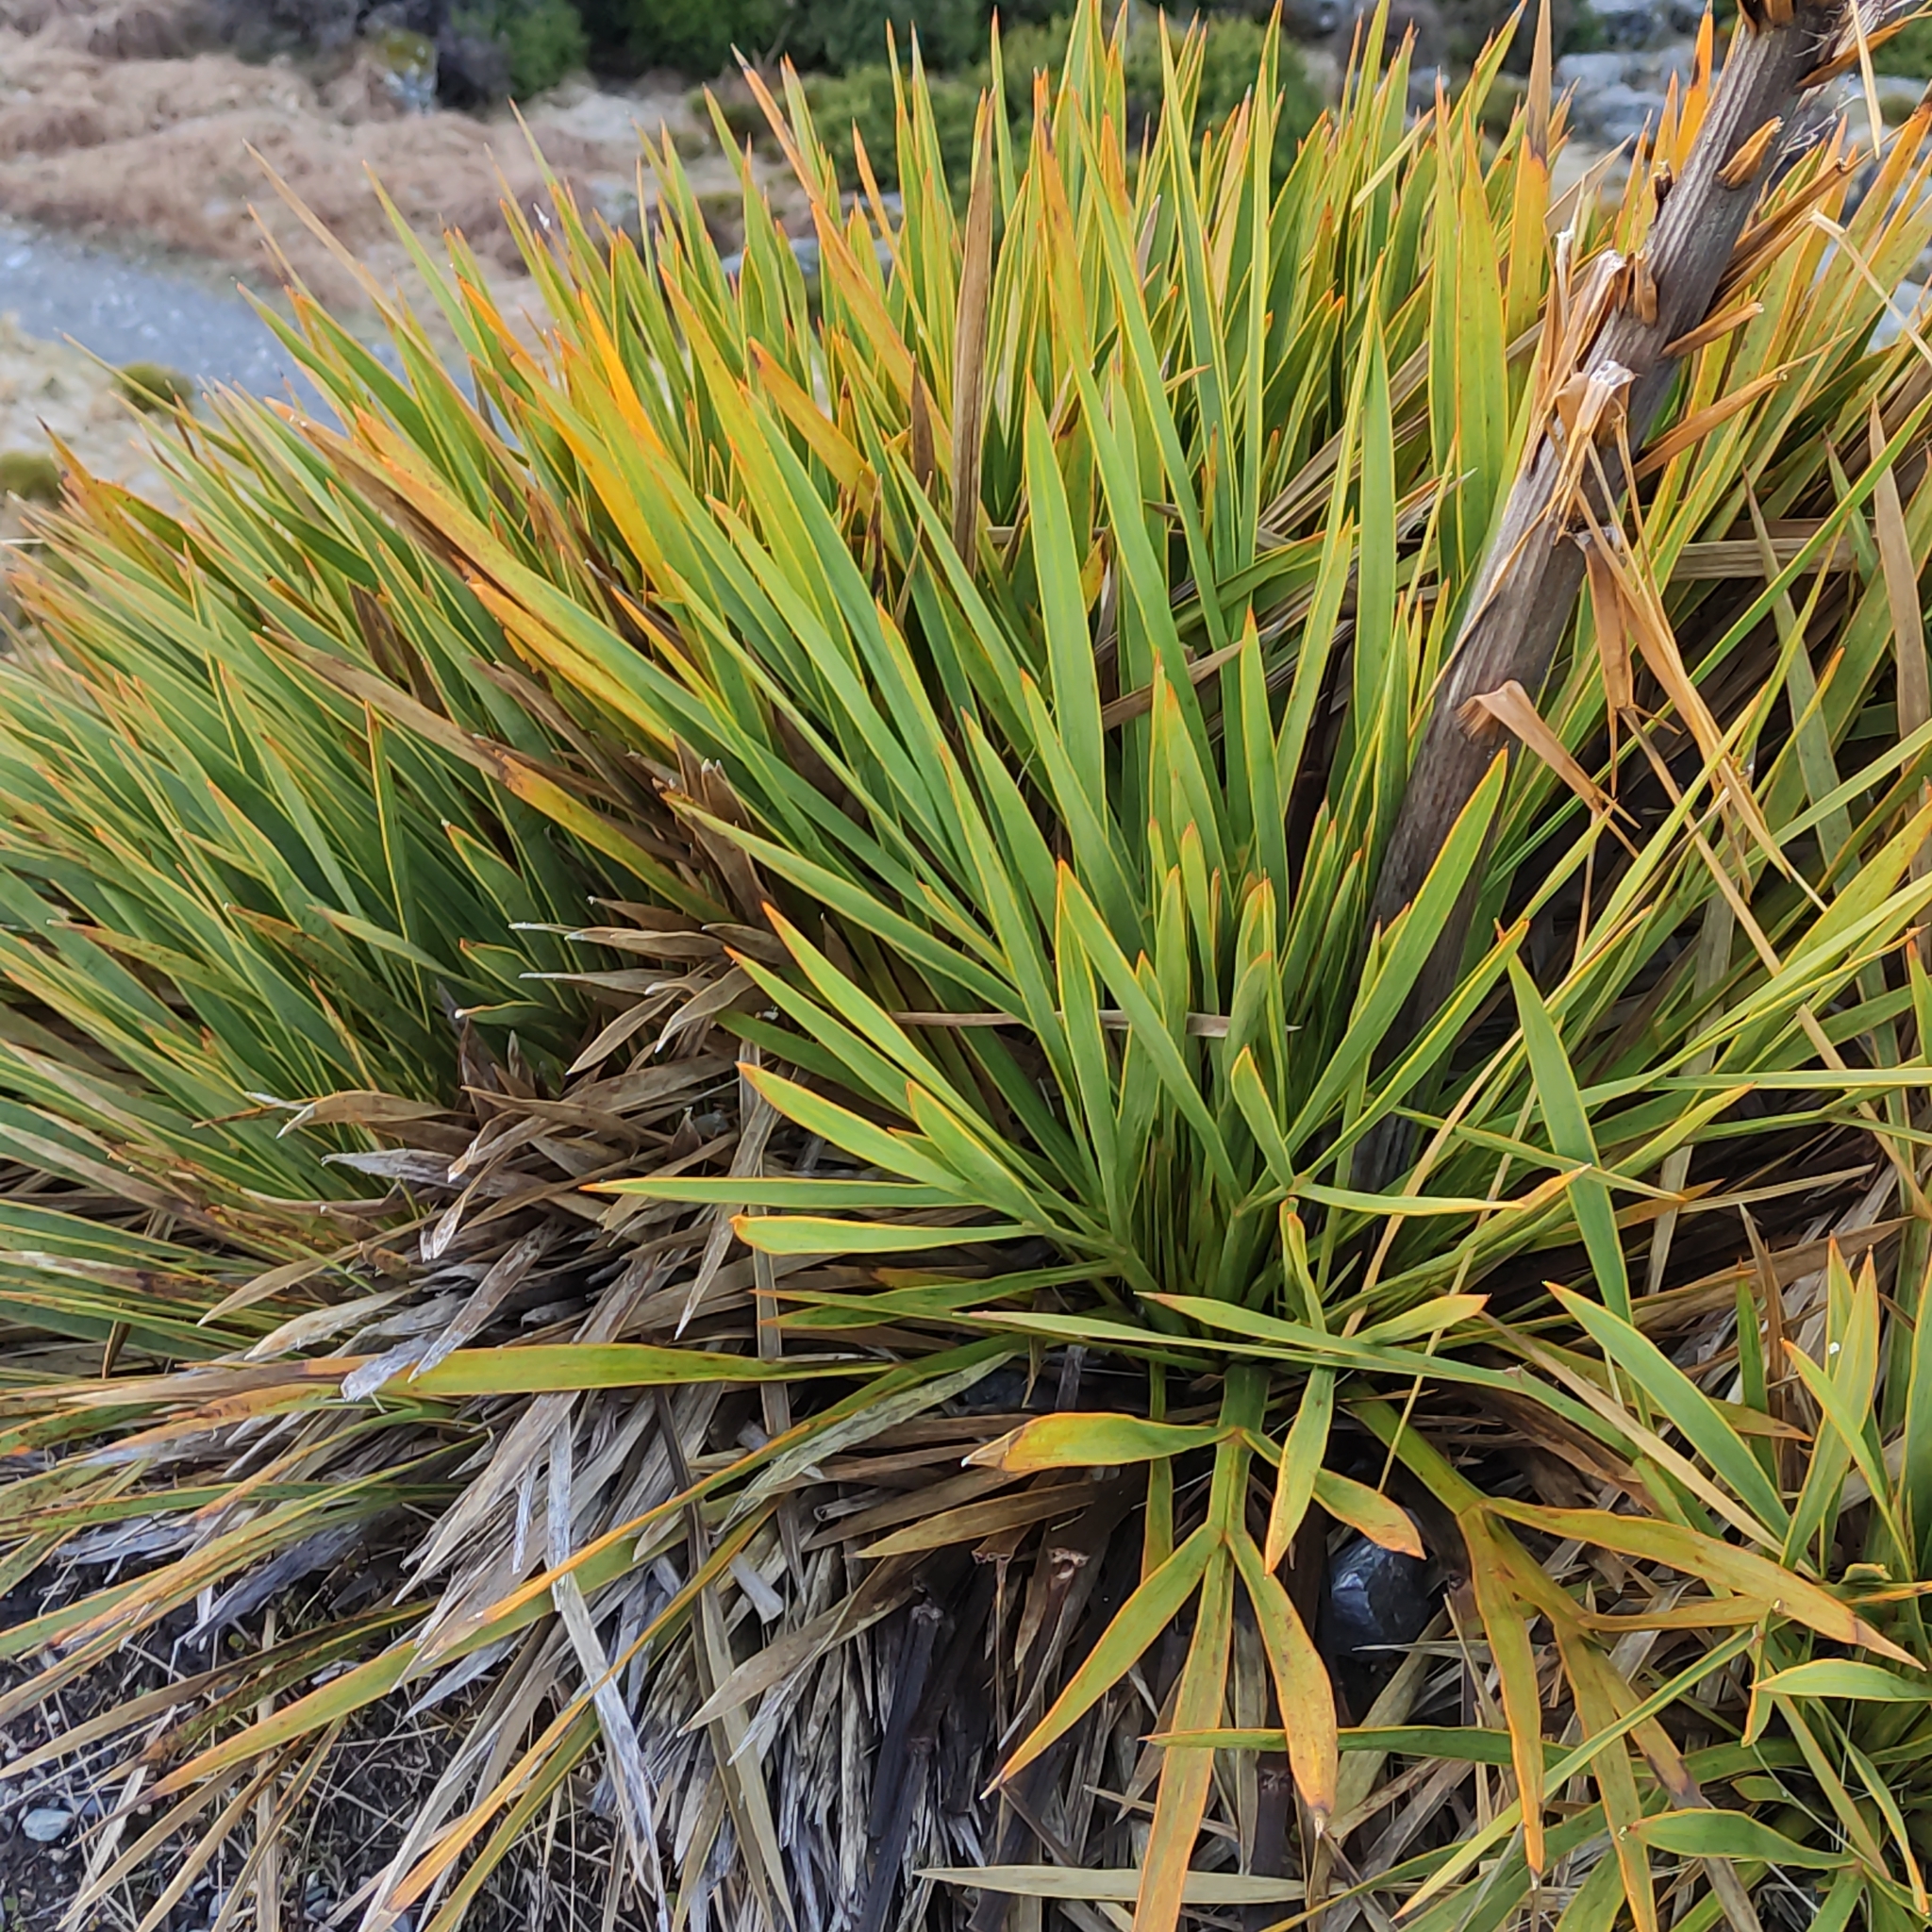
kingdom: Plantae
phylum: Tracheophyta
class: Magnoliopsida
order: Apiales
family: Apiaceae
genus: Aciphylla
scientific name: Aciphylla aurea
